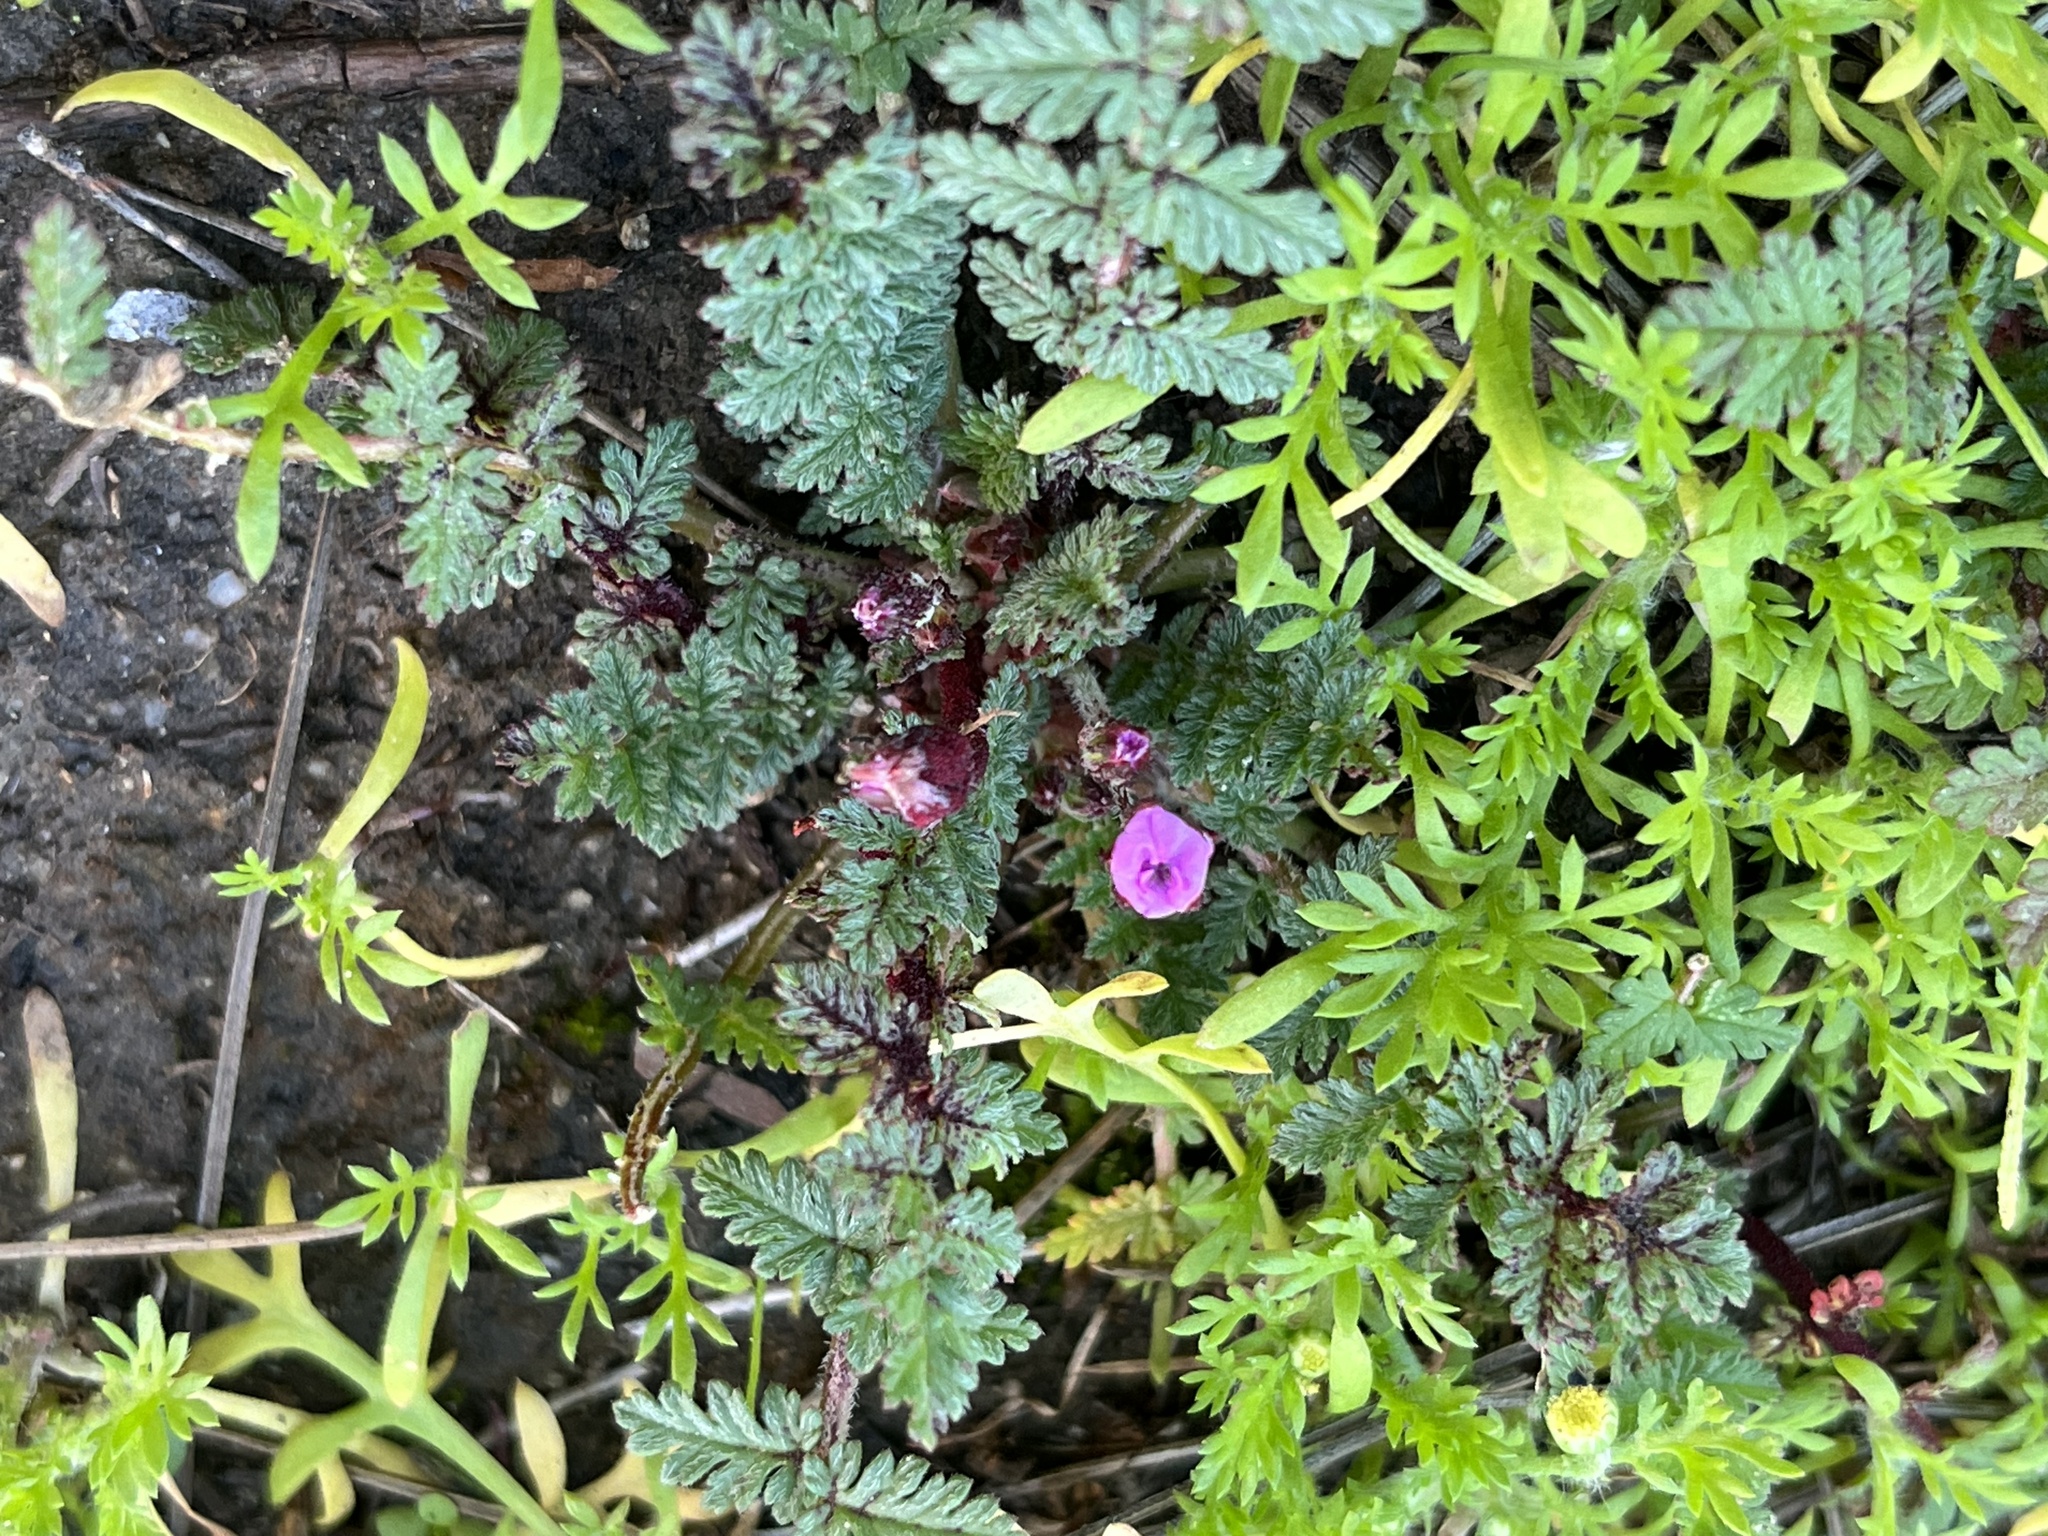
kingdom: Fungi
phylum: Chytridiomycota
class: Chytridiomycetes
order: Chytridiales
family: Synchytriaceae
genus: Synchytrium
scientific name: Synchytrium papillatum
